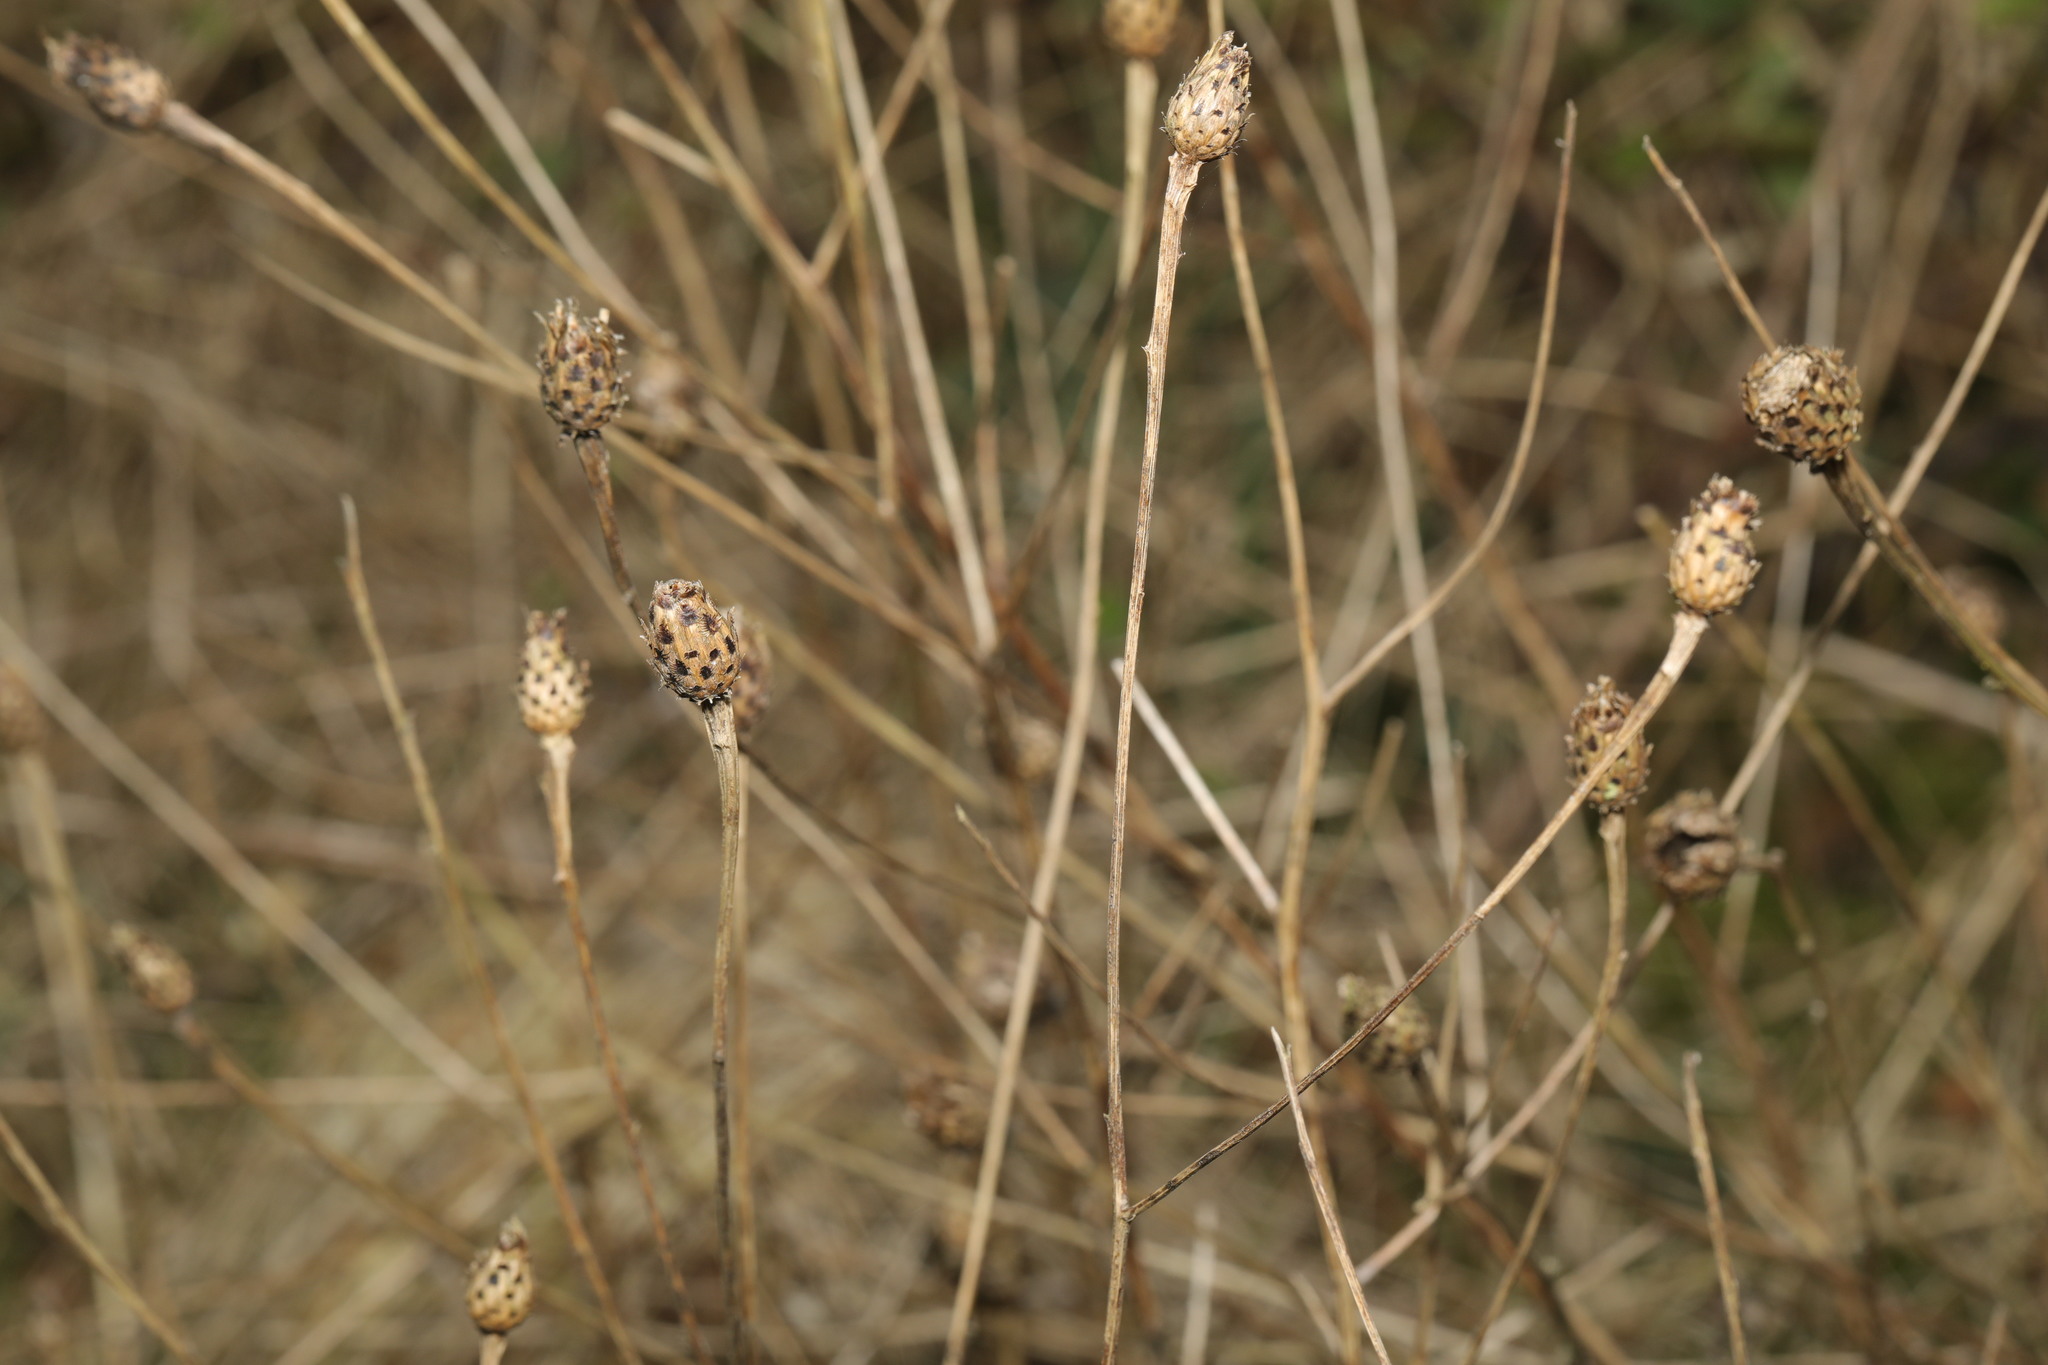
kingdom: Plantae
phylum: Tracheophyta
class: Magnoliopsida
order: Asterales
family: Asteraceae
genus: Centaurea
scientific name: Centaurea nigra
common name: Lesser knapweed
